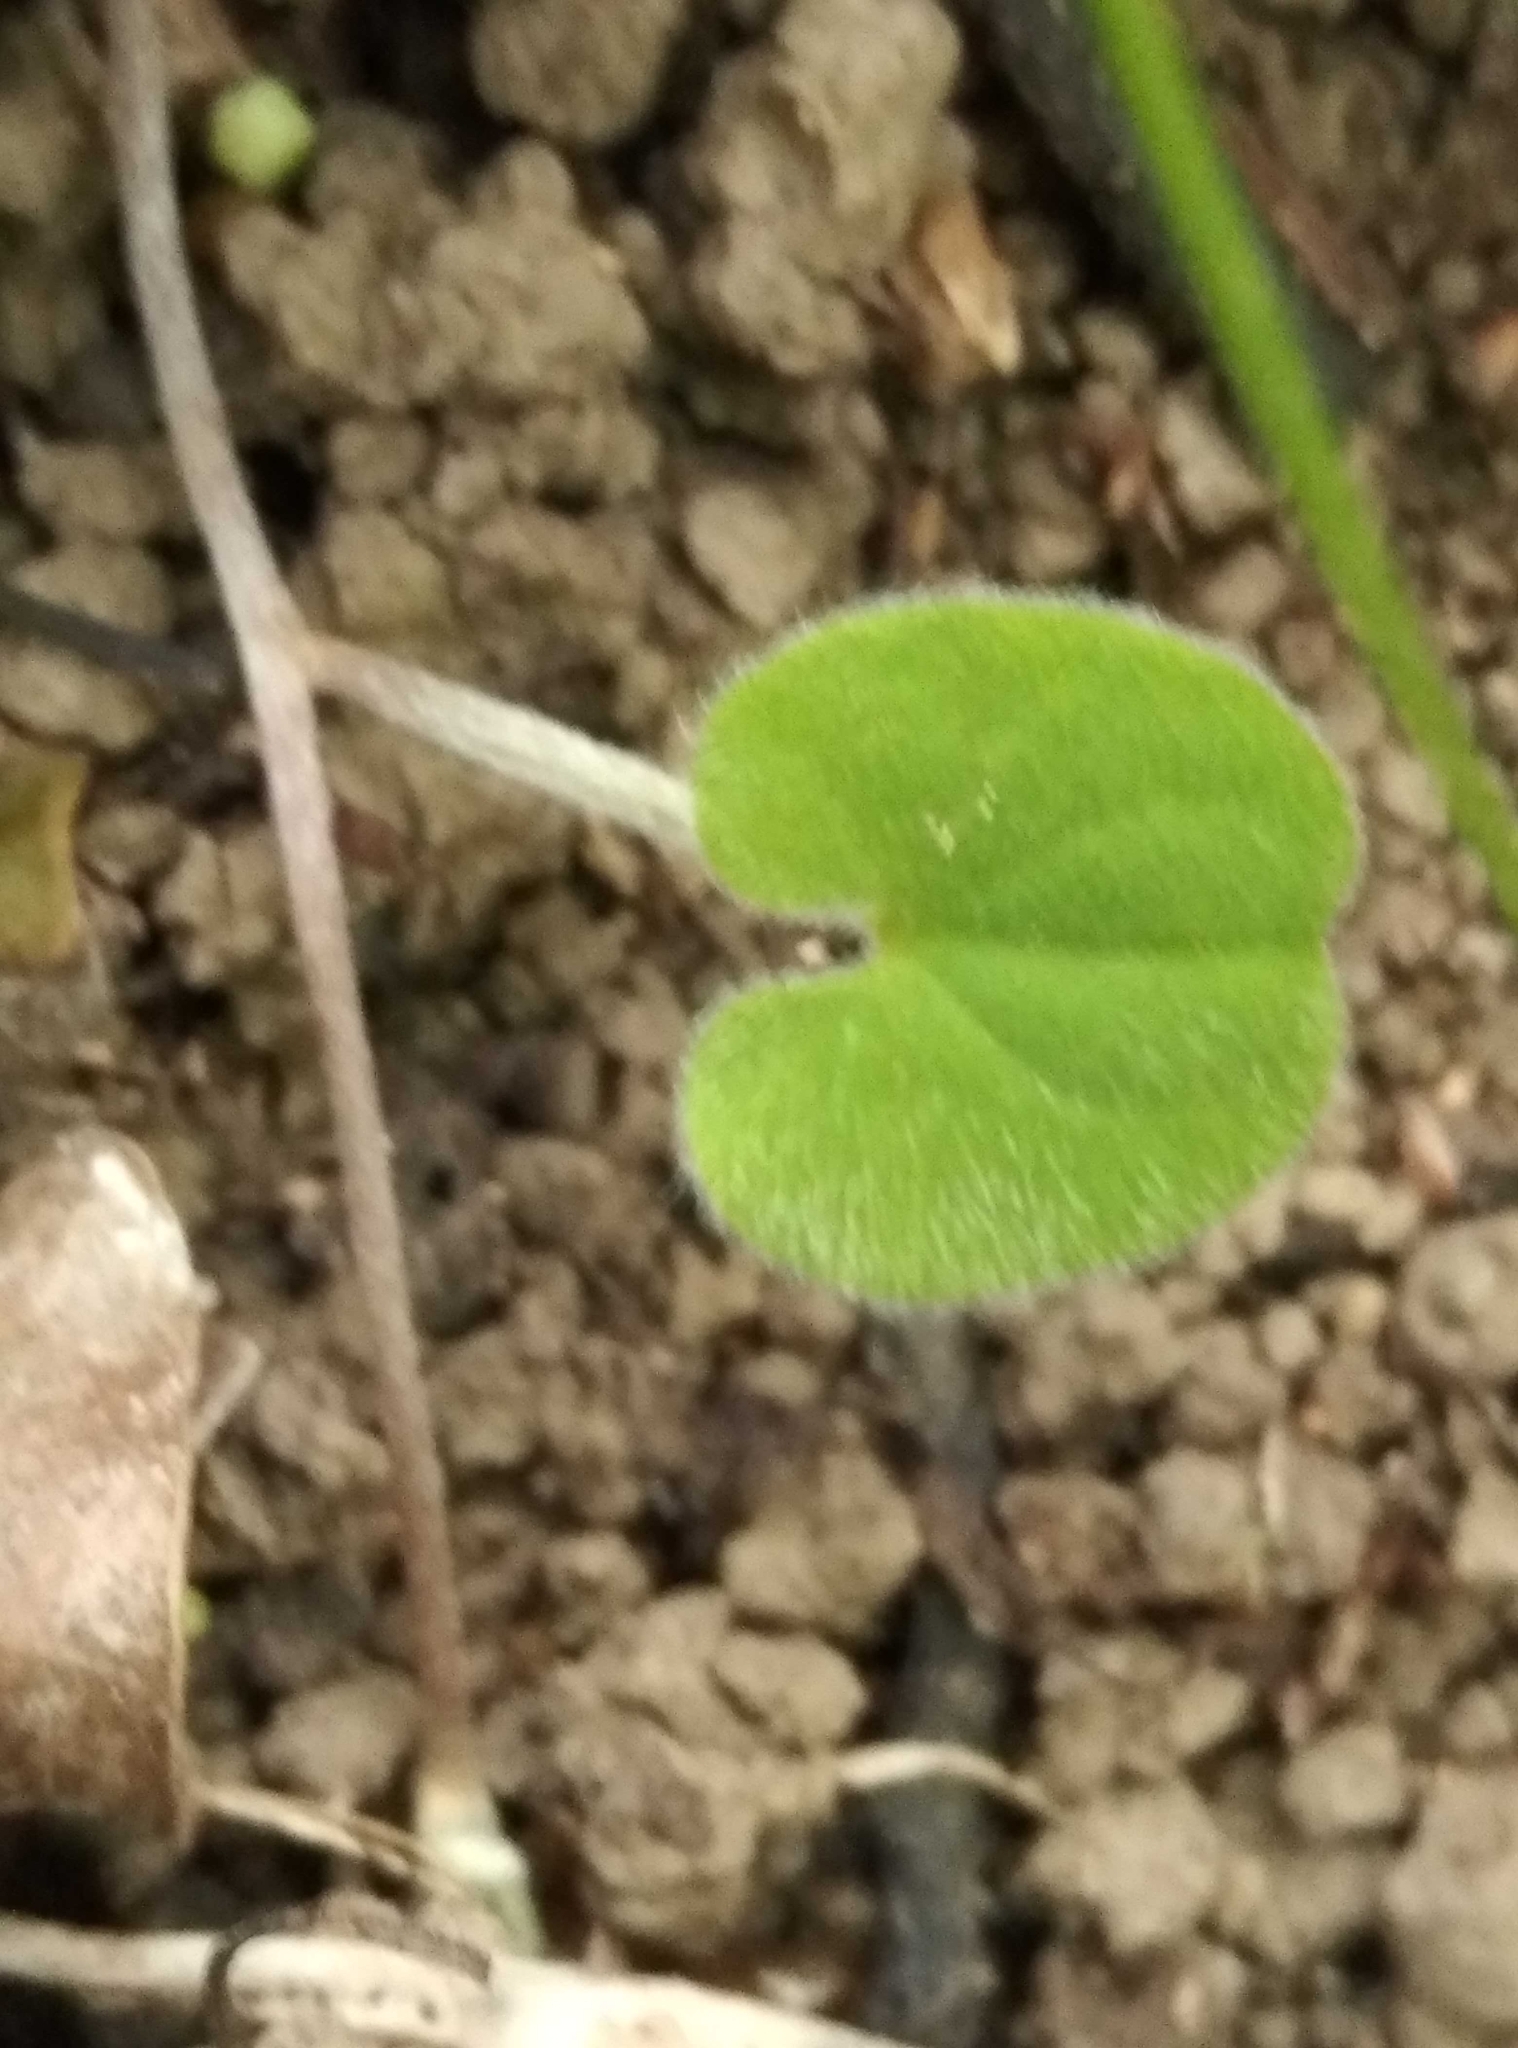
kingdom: Plantae
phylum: Tracheophyta
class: Magnoliopsida
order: Solanales
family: Convolvulaceae
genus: Dichondra
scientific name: Dichondra repens
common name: Kidneyweed
